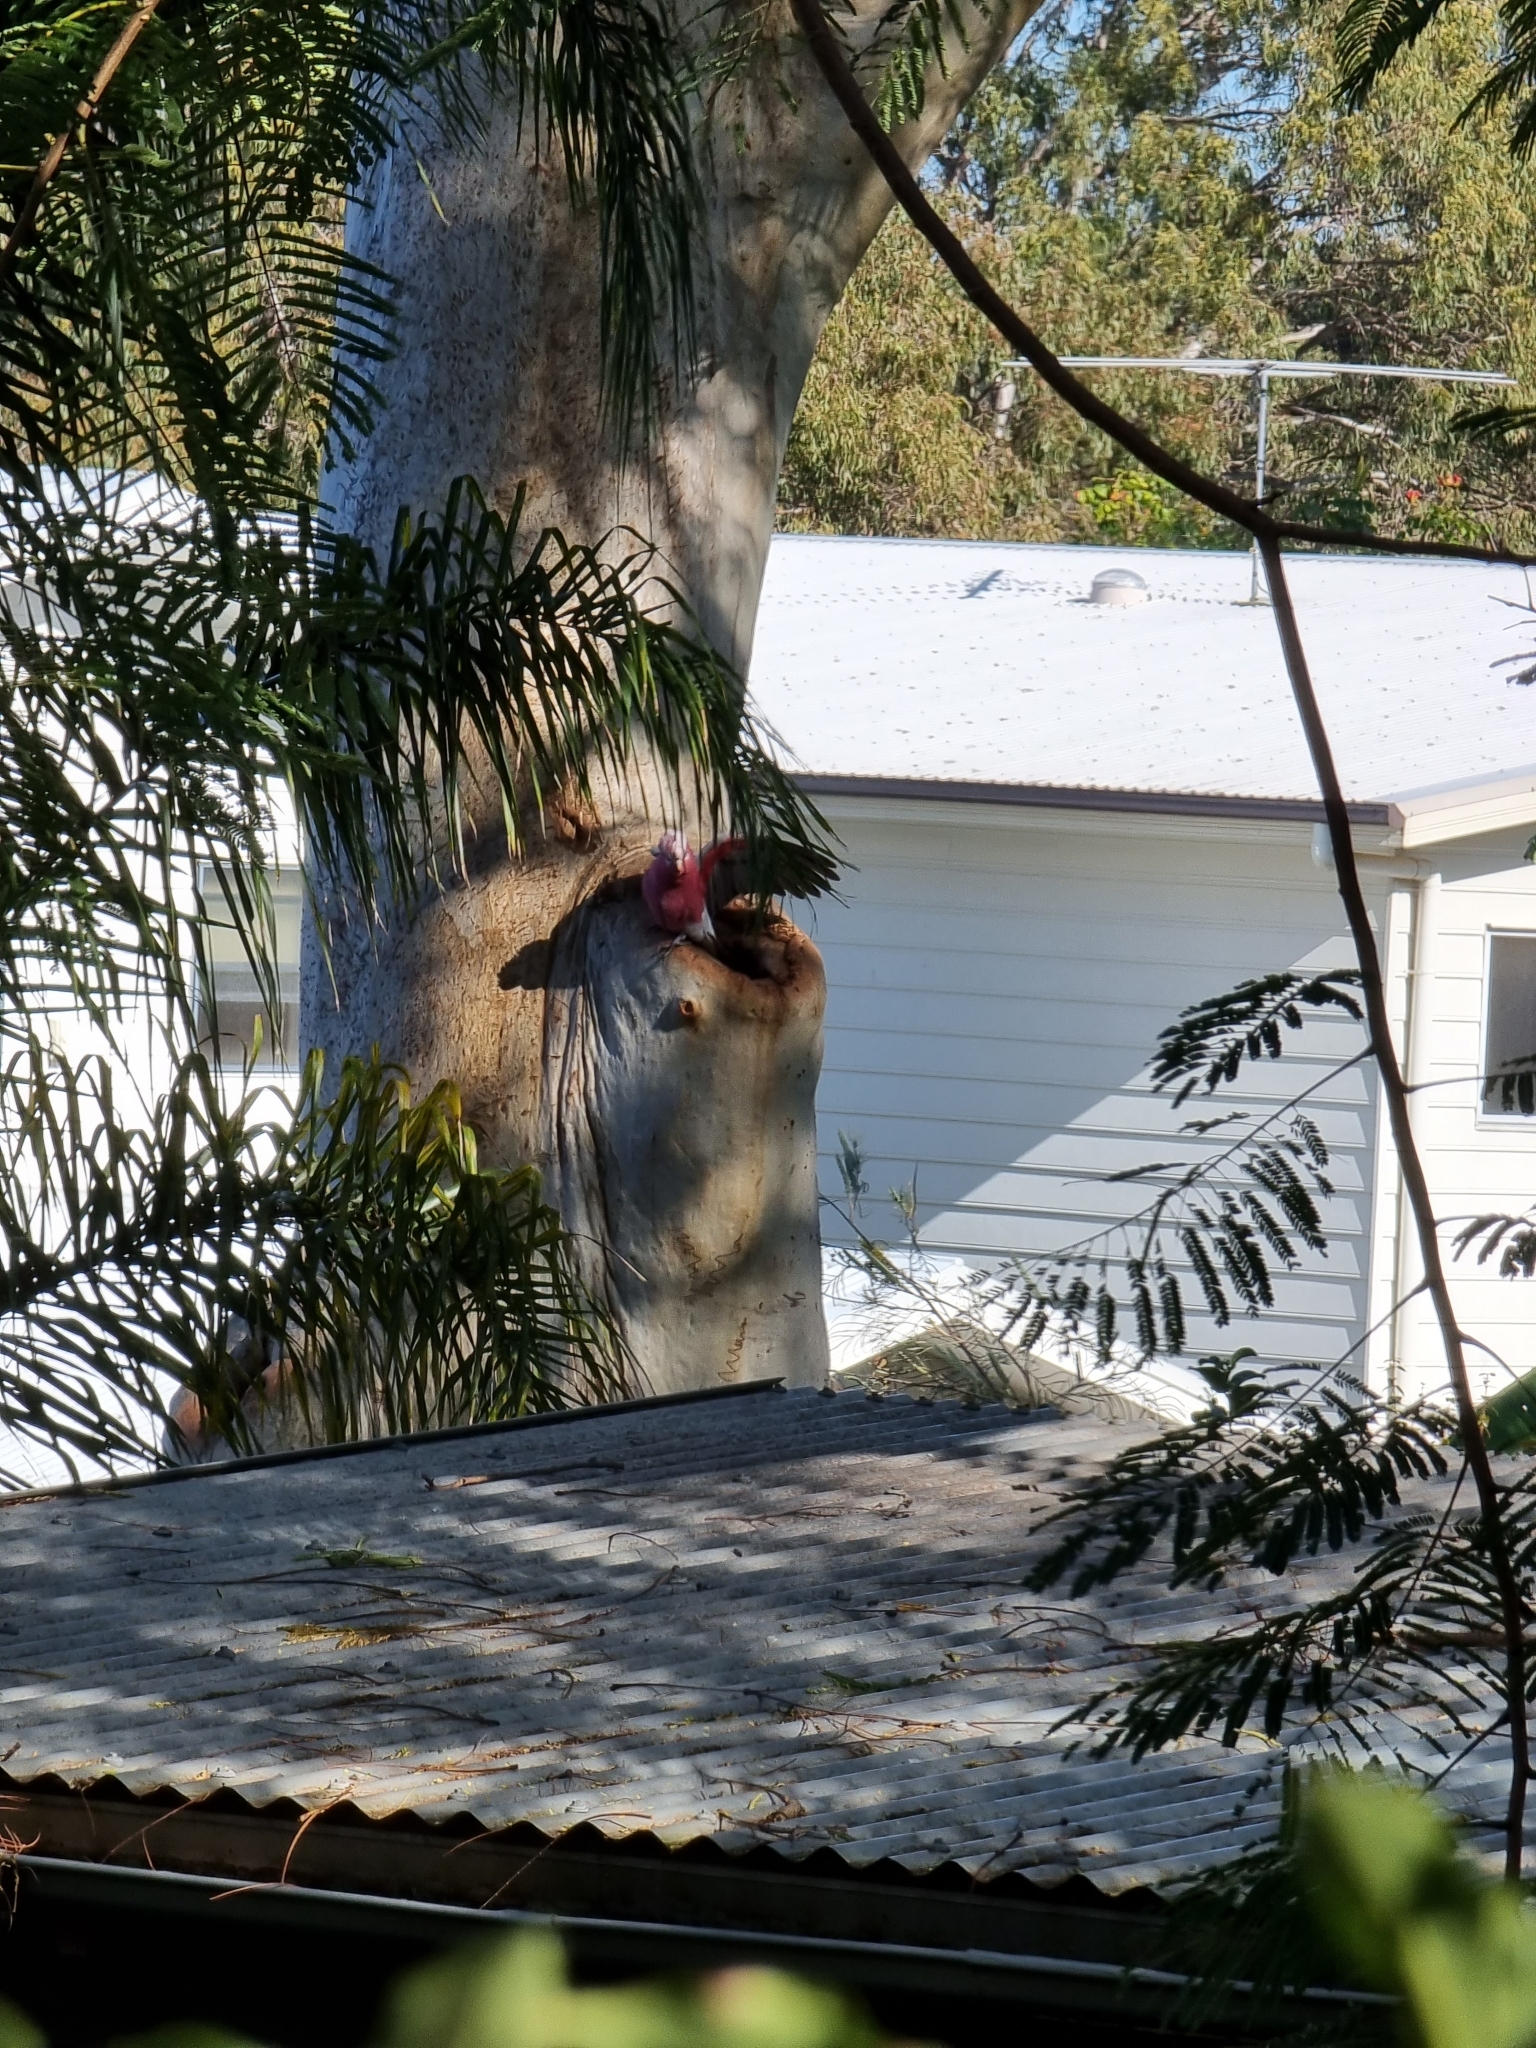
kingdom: Animalia
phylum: Chordata
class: Aves
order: Psittaciformes
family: Psittacidae
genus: Eolophus
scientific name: Eolophus roseicapilla
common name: Galah
